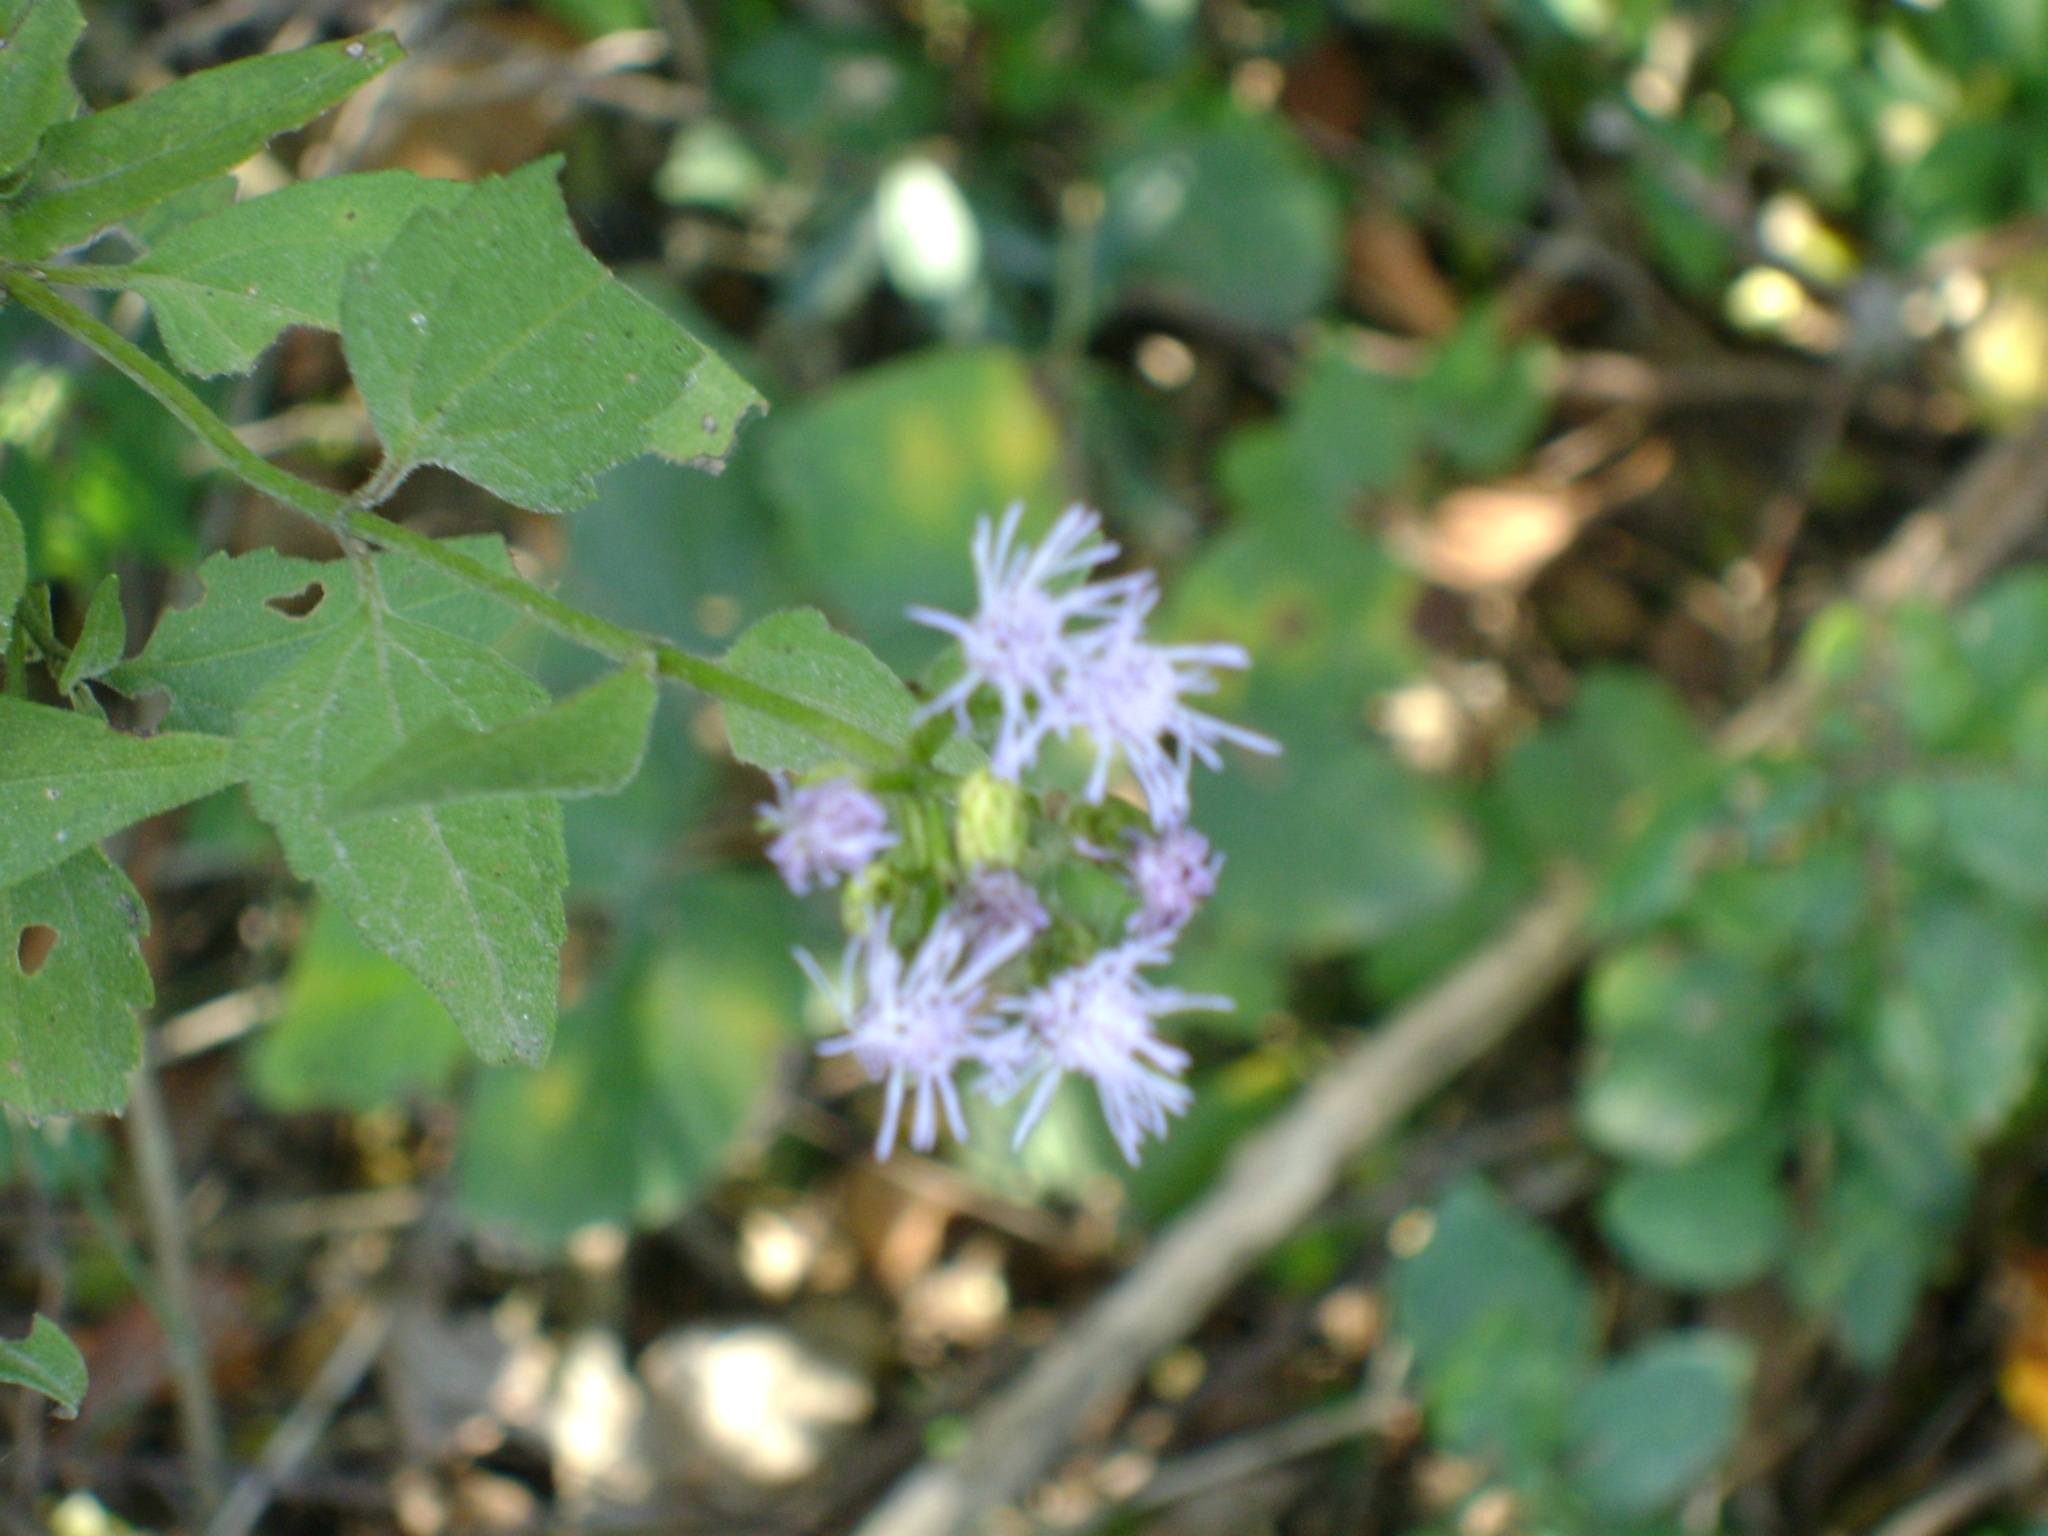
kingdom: Plantae
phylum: Tracheophyta
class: Magnoliopsida
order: Asterales
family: Asteraceae
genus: Chromolaena
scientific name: Chromolaena odorata
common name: Siamweed
